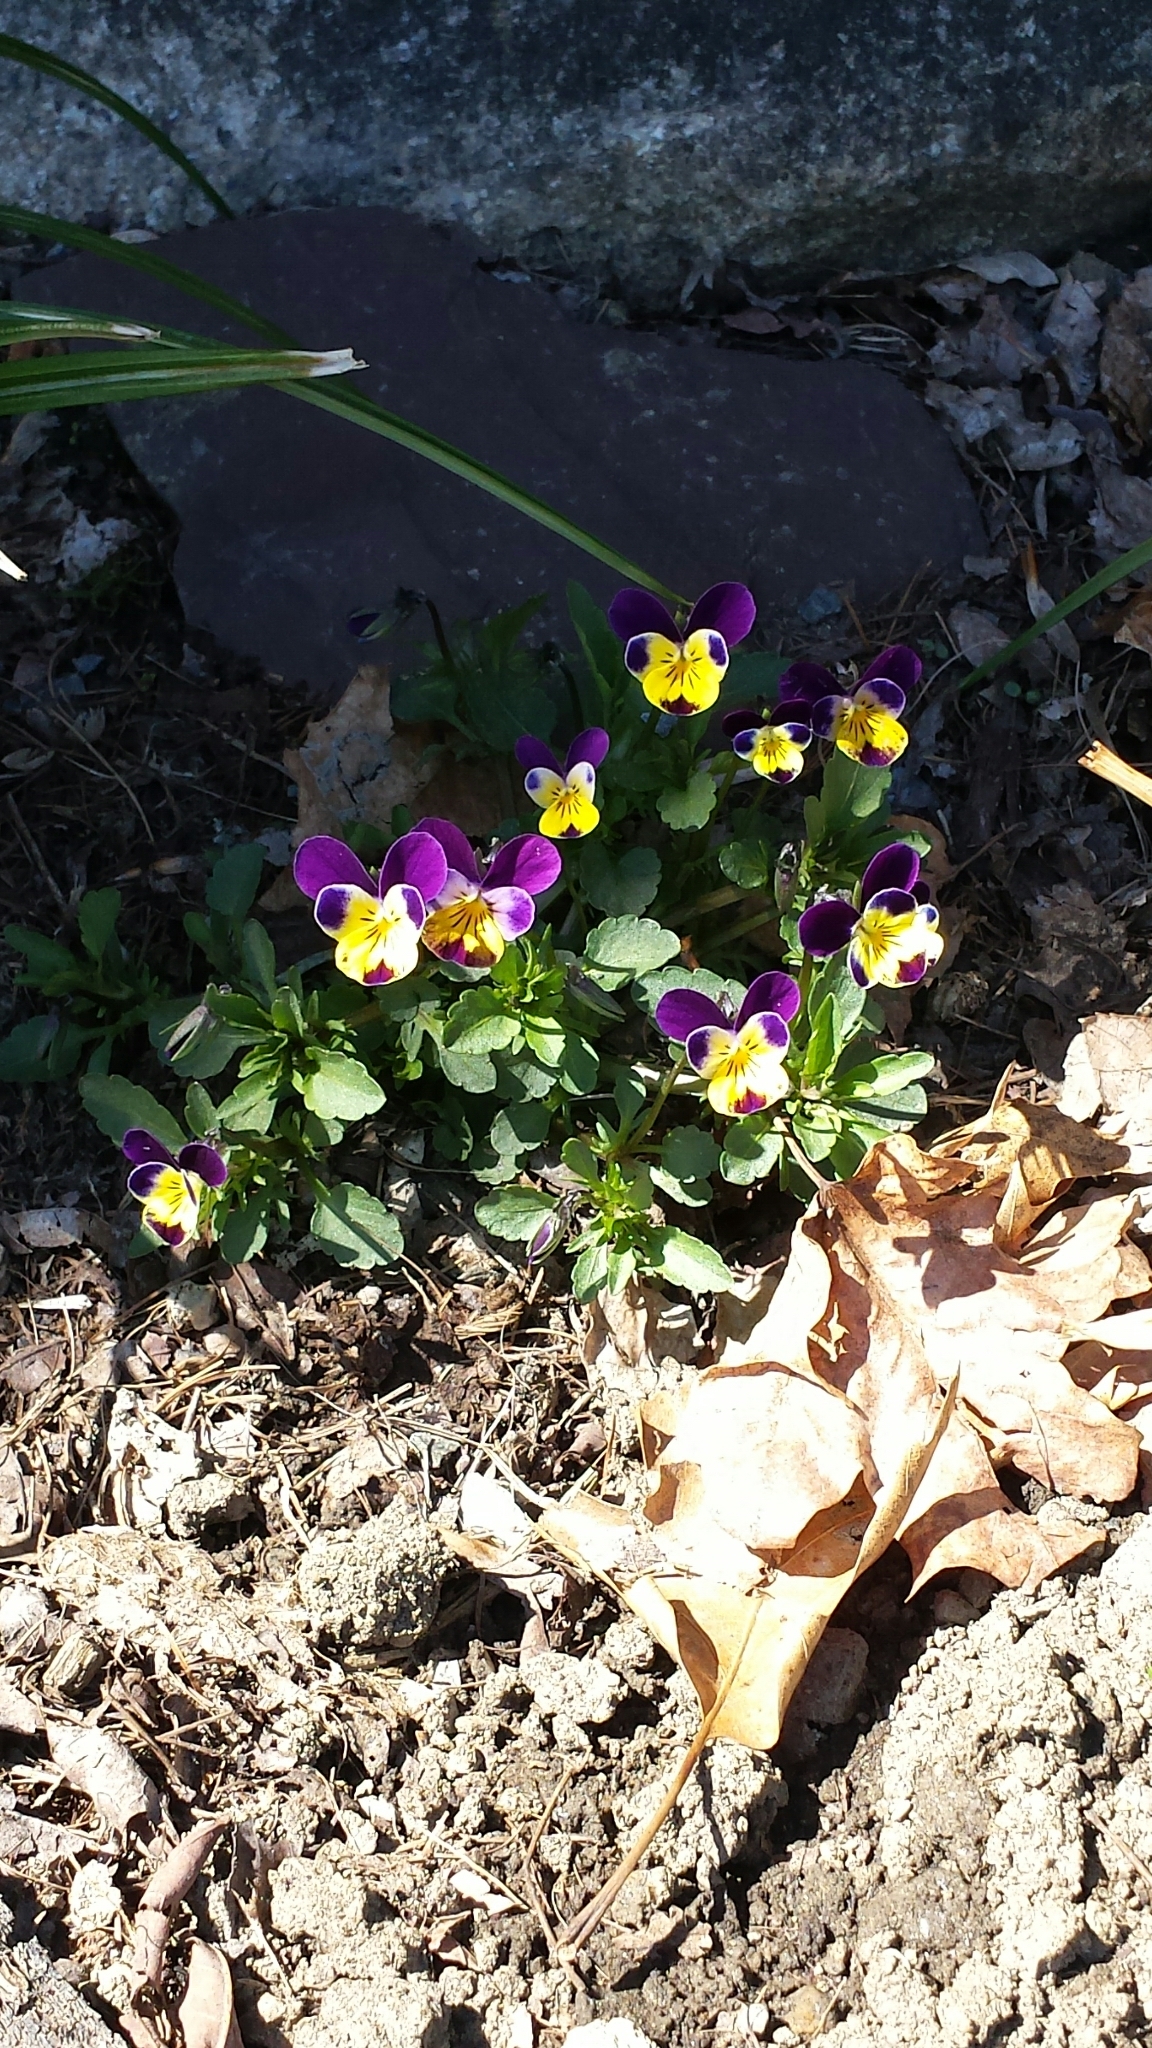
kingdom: Plantae
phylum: Tracheophyta
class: Magnoliopsida
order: Malpighiales
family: Violaceae
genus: Viola
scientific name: Viola williamsii
